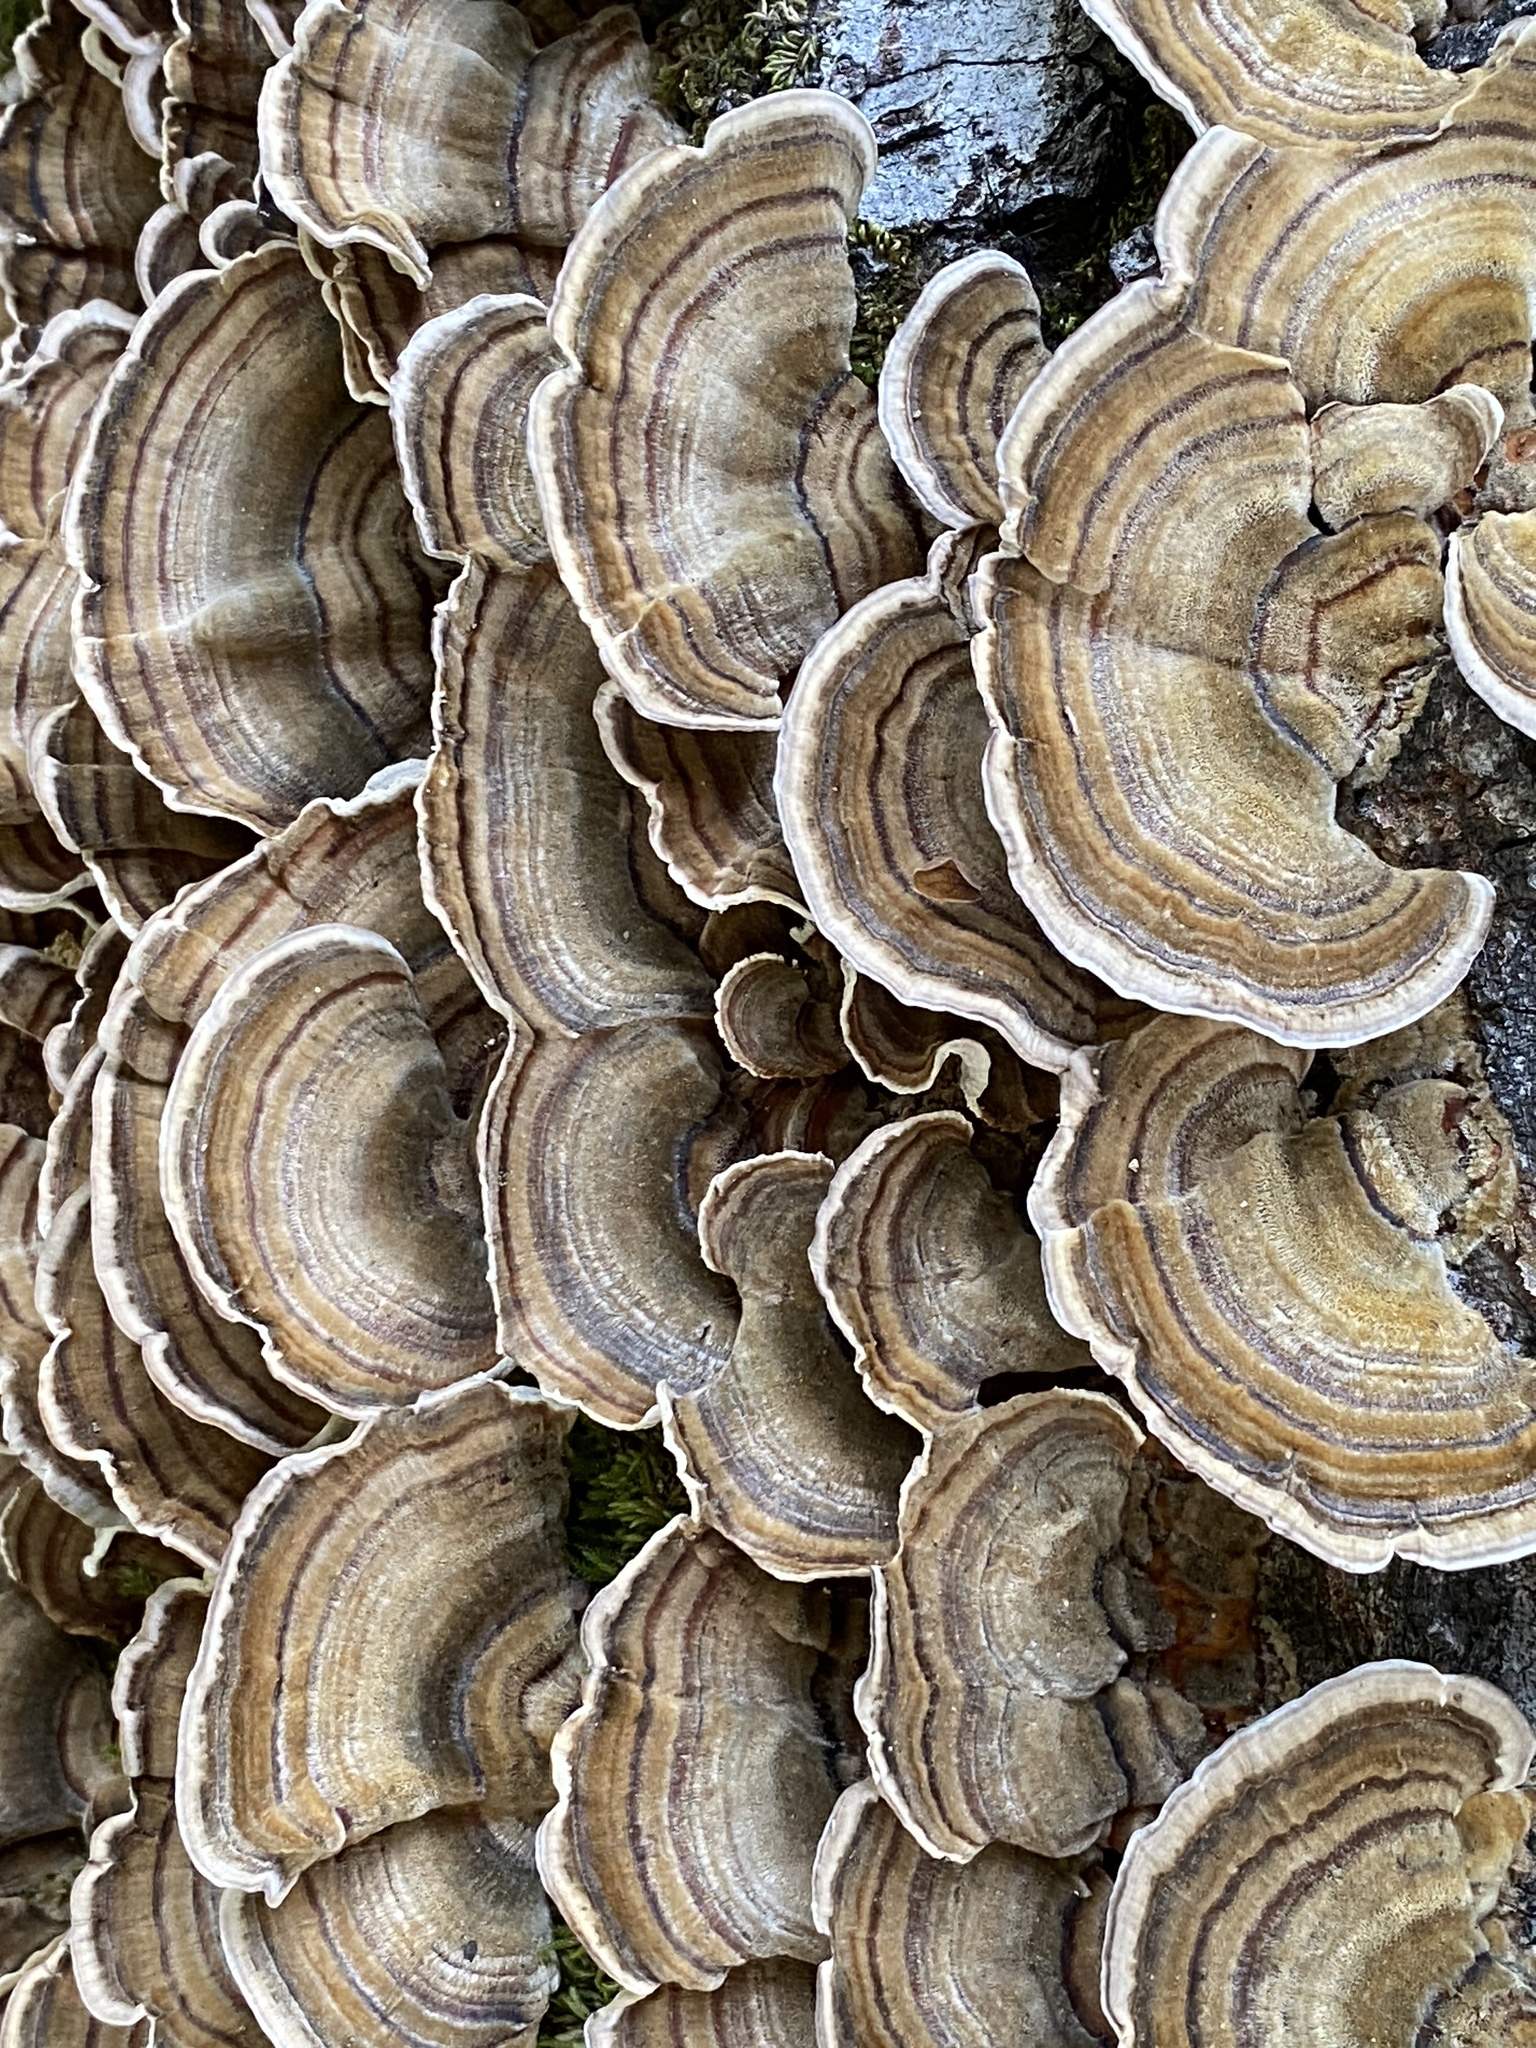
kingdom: Fungi
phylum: Basidiomycota
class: Agaricomycetes
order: Polyporales
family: Polyporaceae
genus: Trametes
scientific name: Trametes versicolor
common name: Turkeytail
